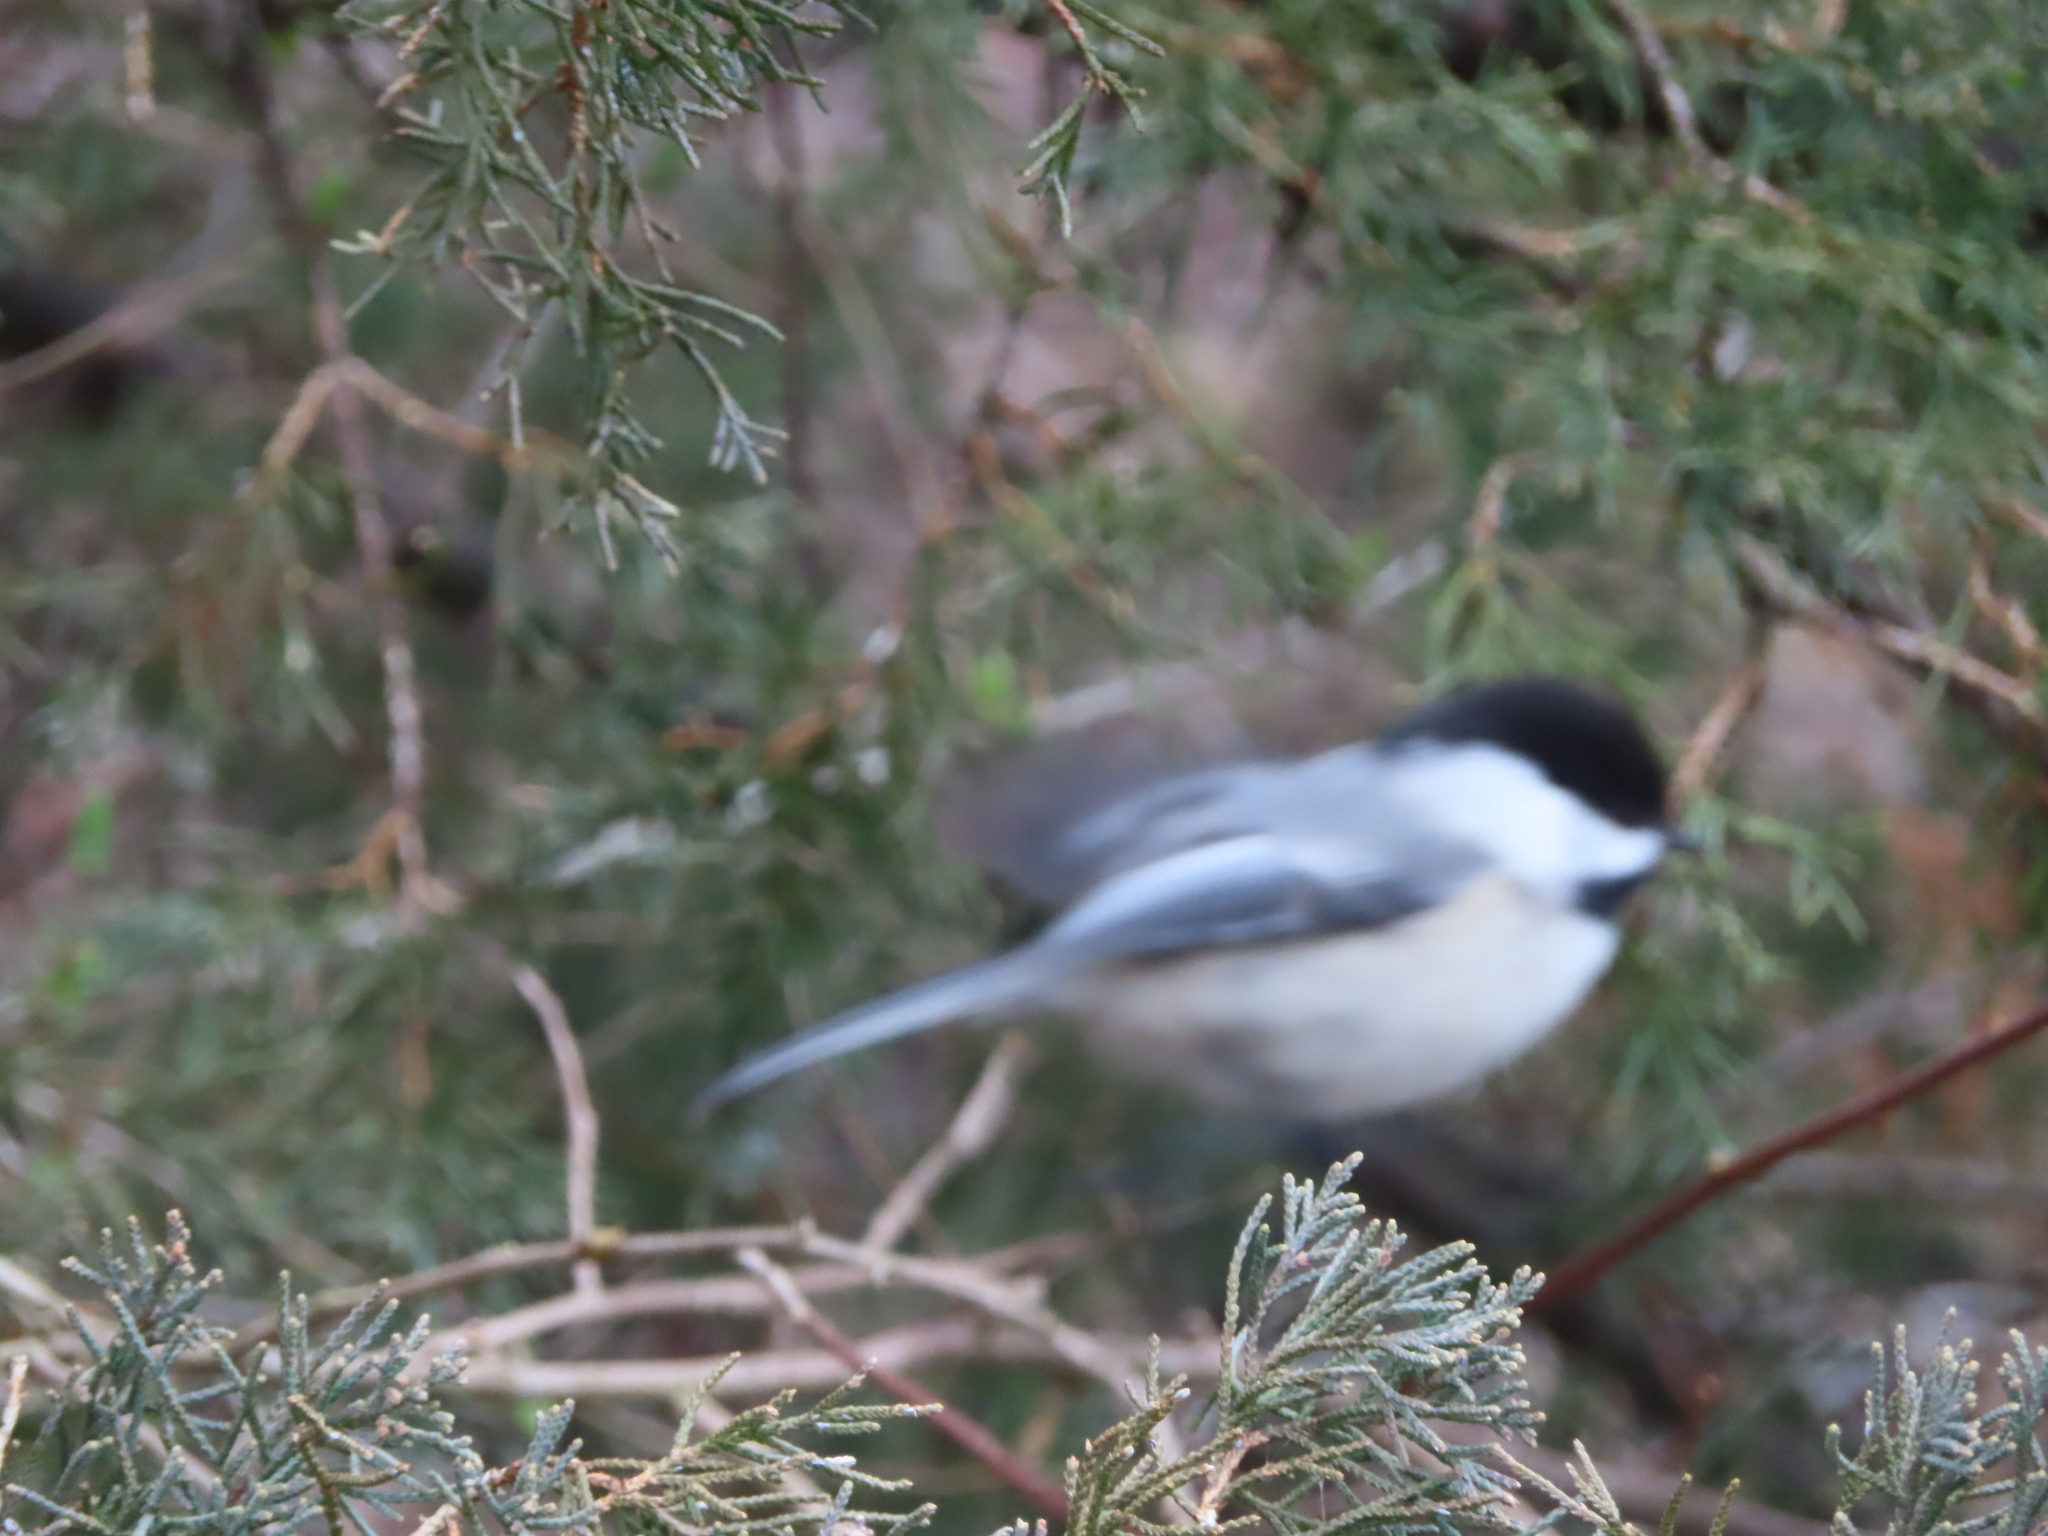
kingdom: Animalia
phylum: Chordata
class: Aves
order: Passeriformes
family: Paridae
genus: Poecile
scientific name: Poecile atricapillus
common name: Black-capped chickadee
